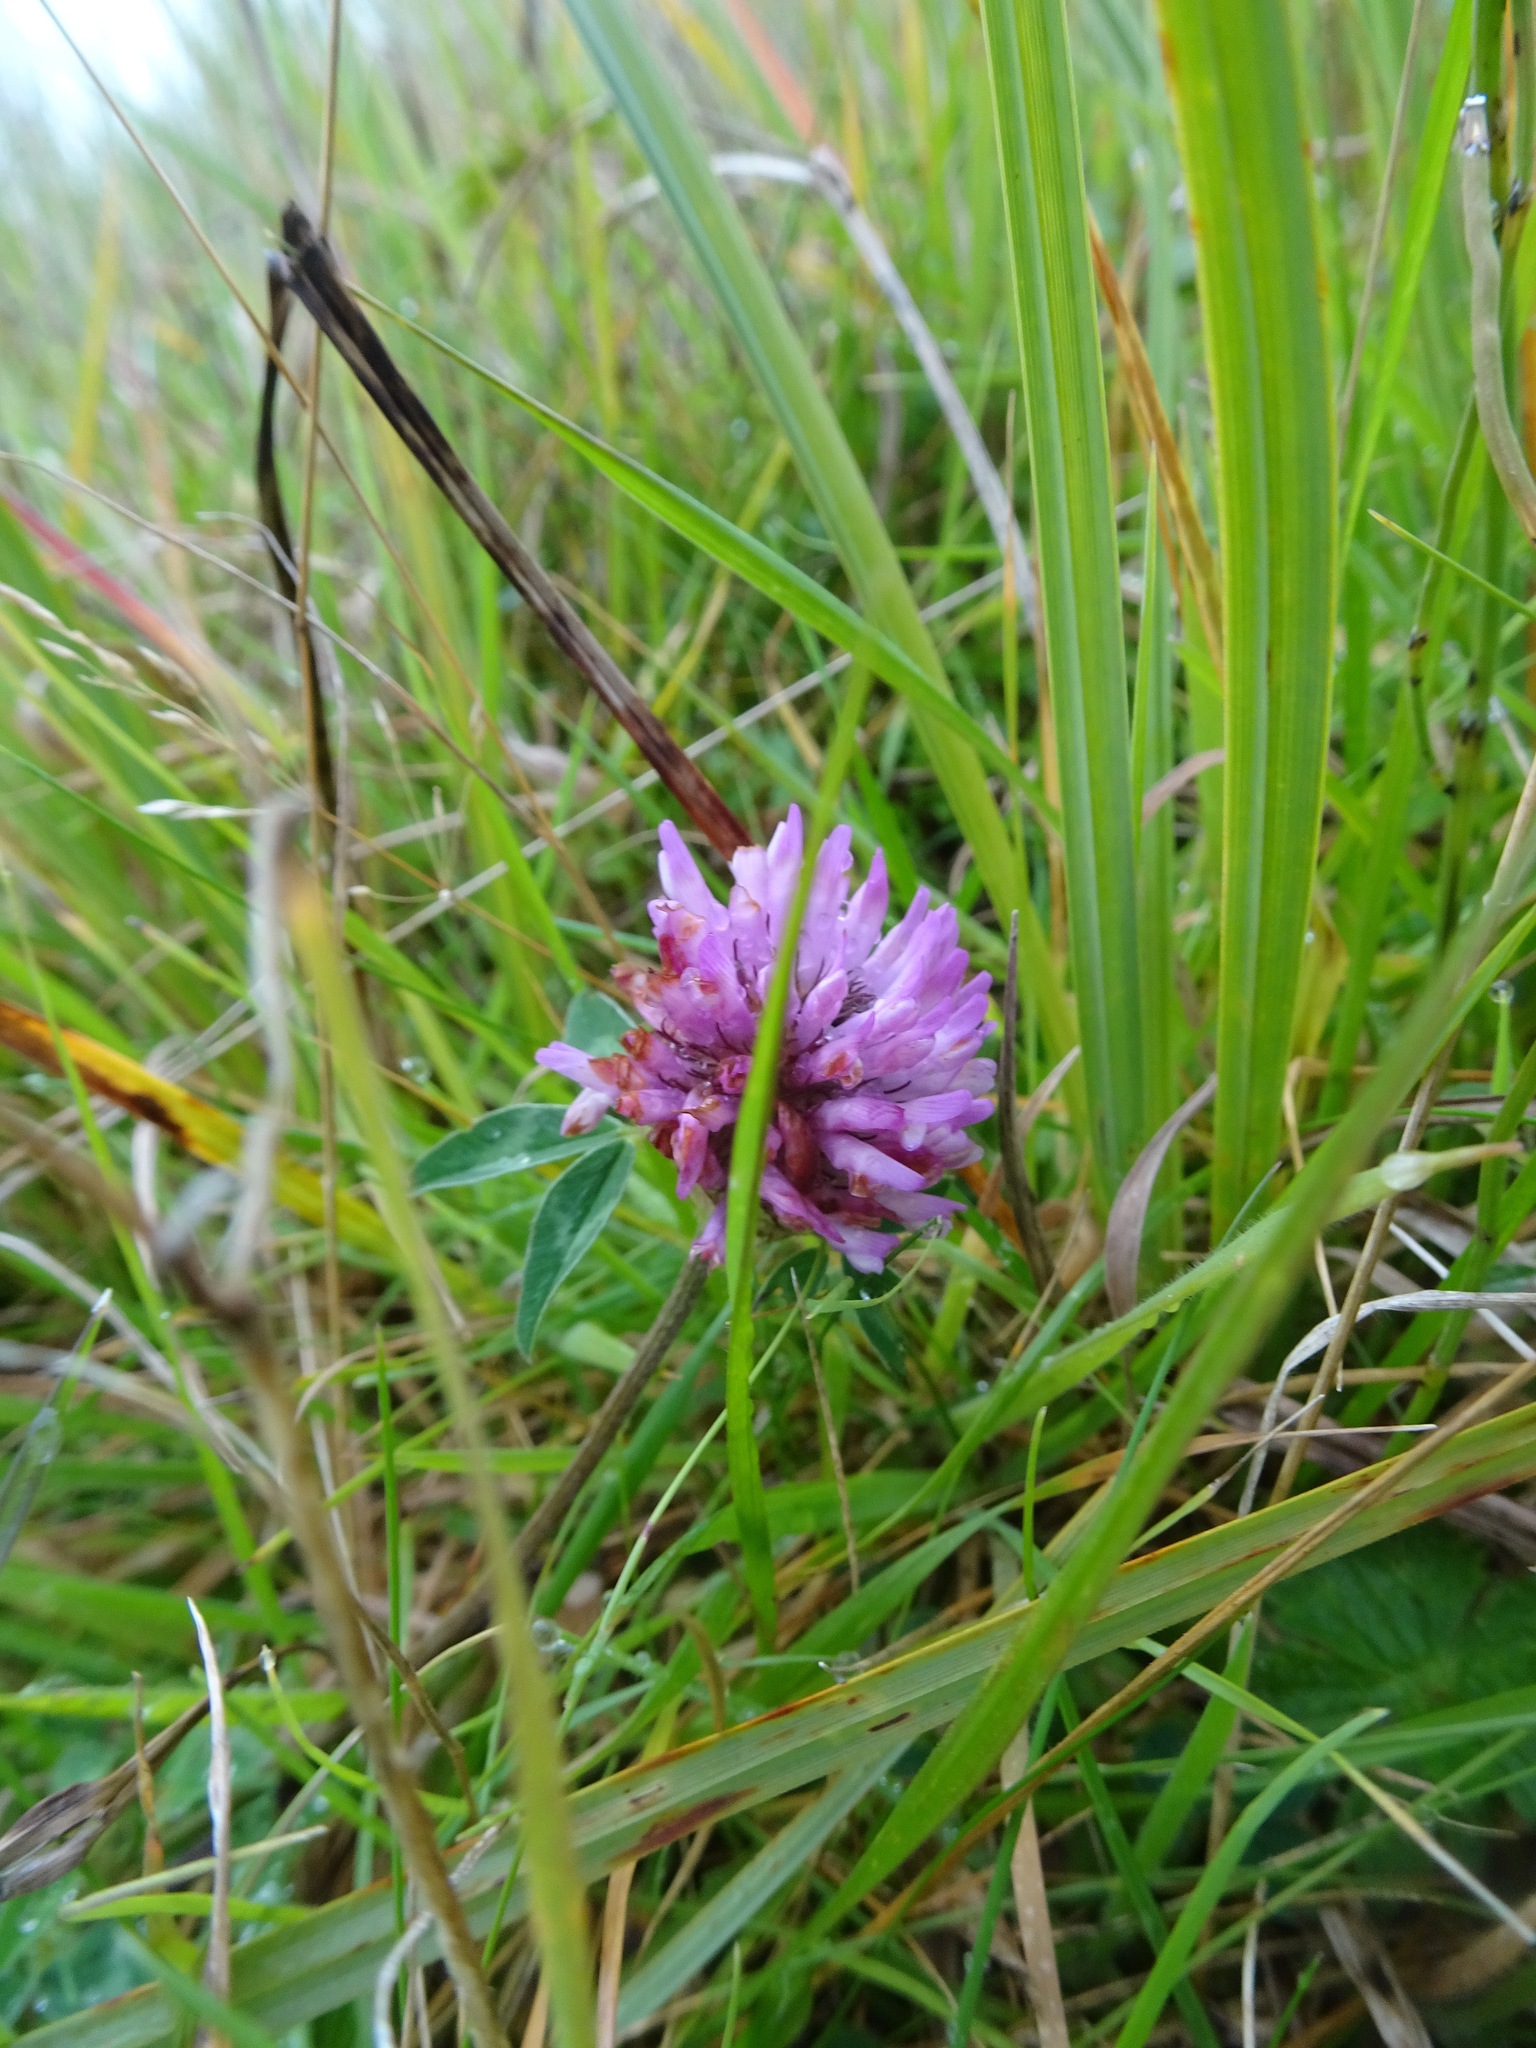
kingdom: Plantae
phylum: Tracheophyta
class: Magnoliopsida
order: Fabales
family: Fabaceae
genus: Trifolium
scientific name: Trifolium pratense
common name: Red clover
